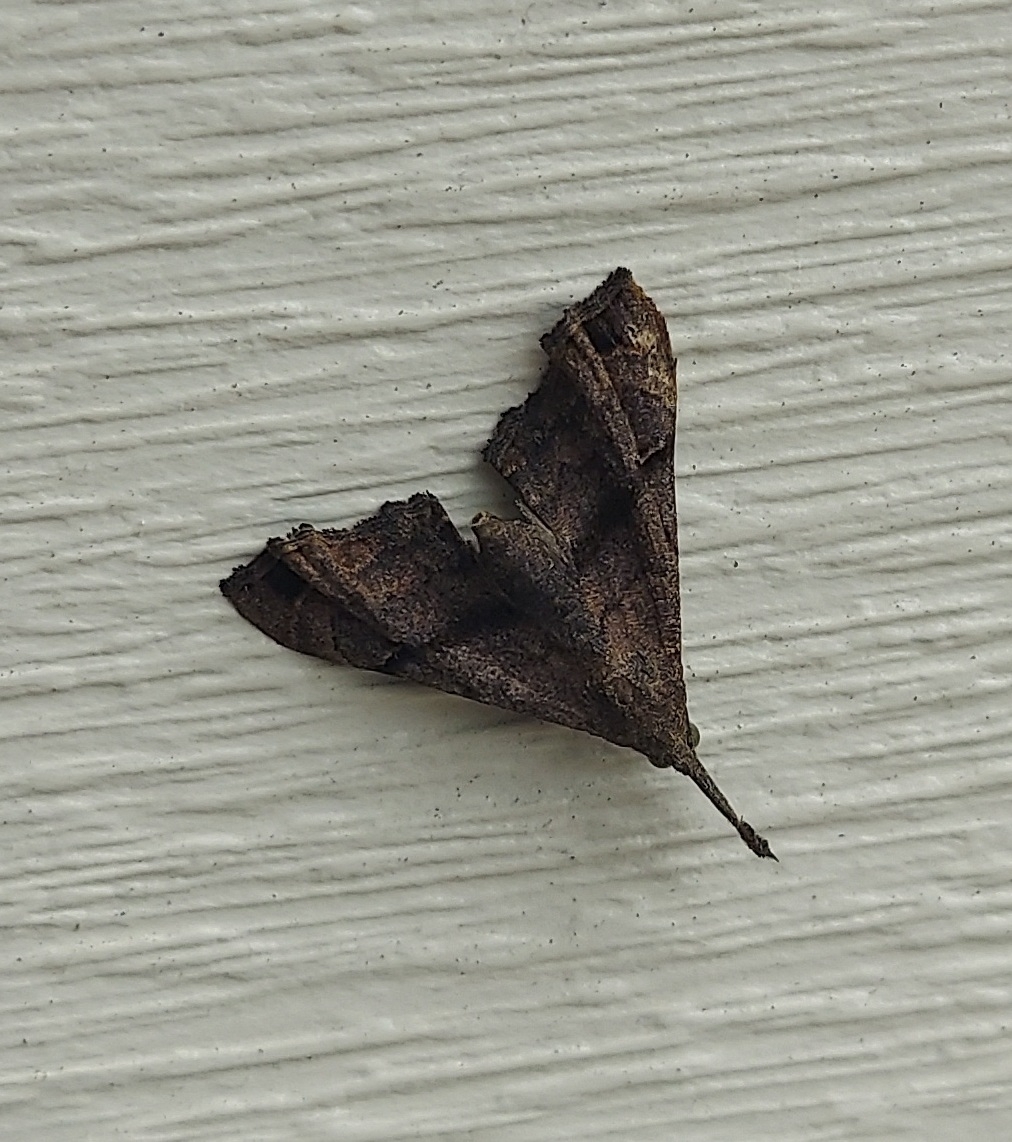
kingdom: Animalia
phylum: Arthropoda
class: Insecta
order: Lepidoptera
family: Erebidae
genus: Palthis
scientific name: Palthis asopialis
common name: Faint-spotted palthis moth
